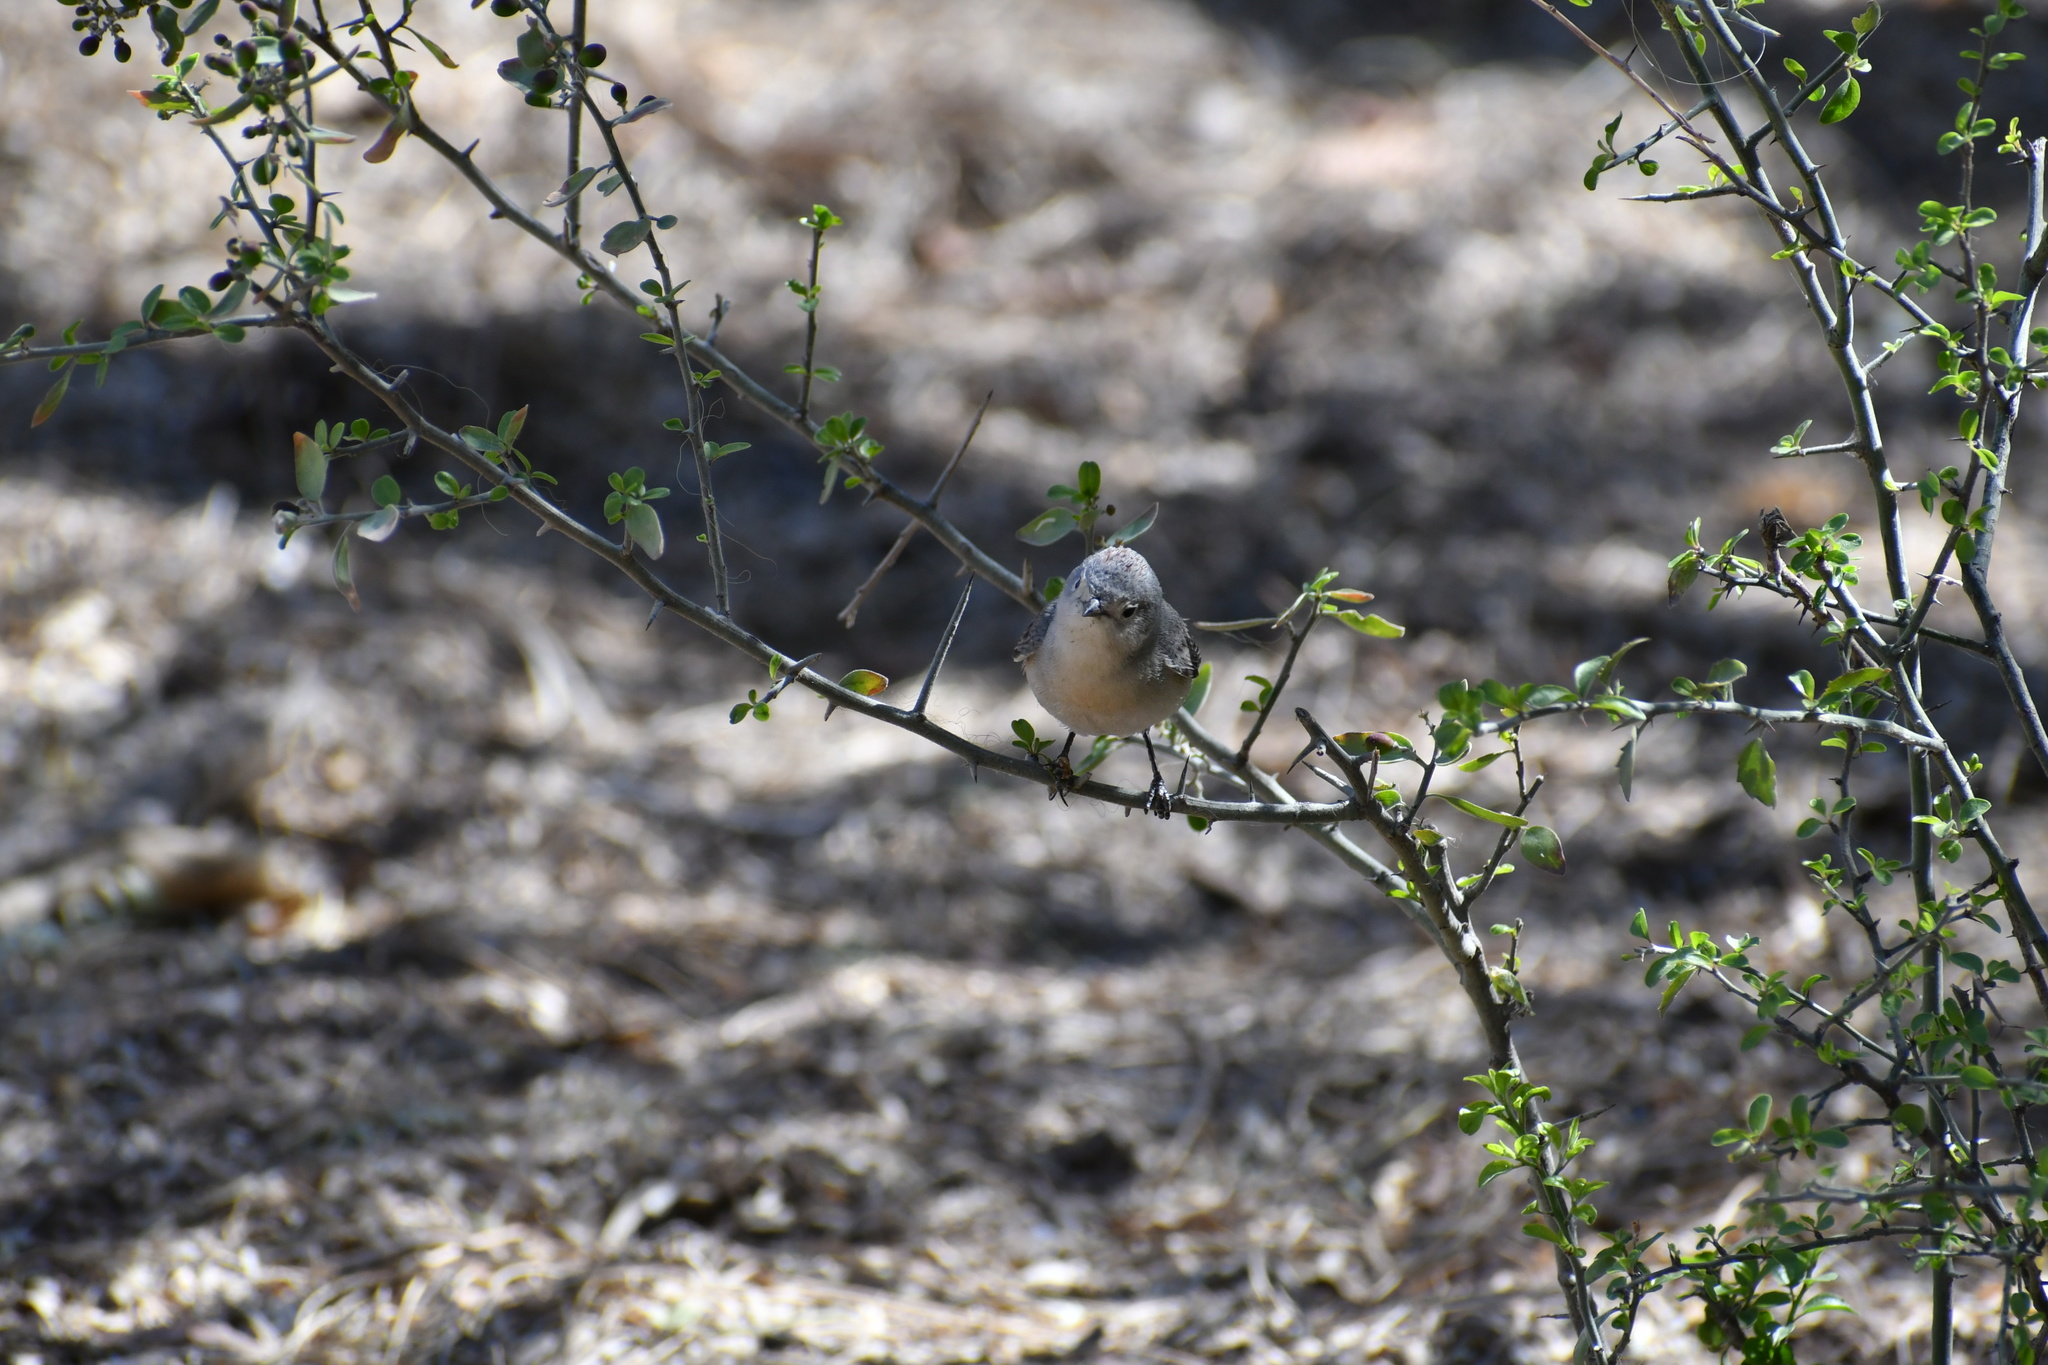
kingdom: Animalia
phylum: Chordata
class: Aves
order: Passeriformes
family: Parulidae
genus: Leiothlypis
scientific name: Leiothlypis luciae
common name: Lucy's warbler
